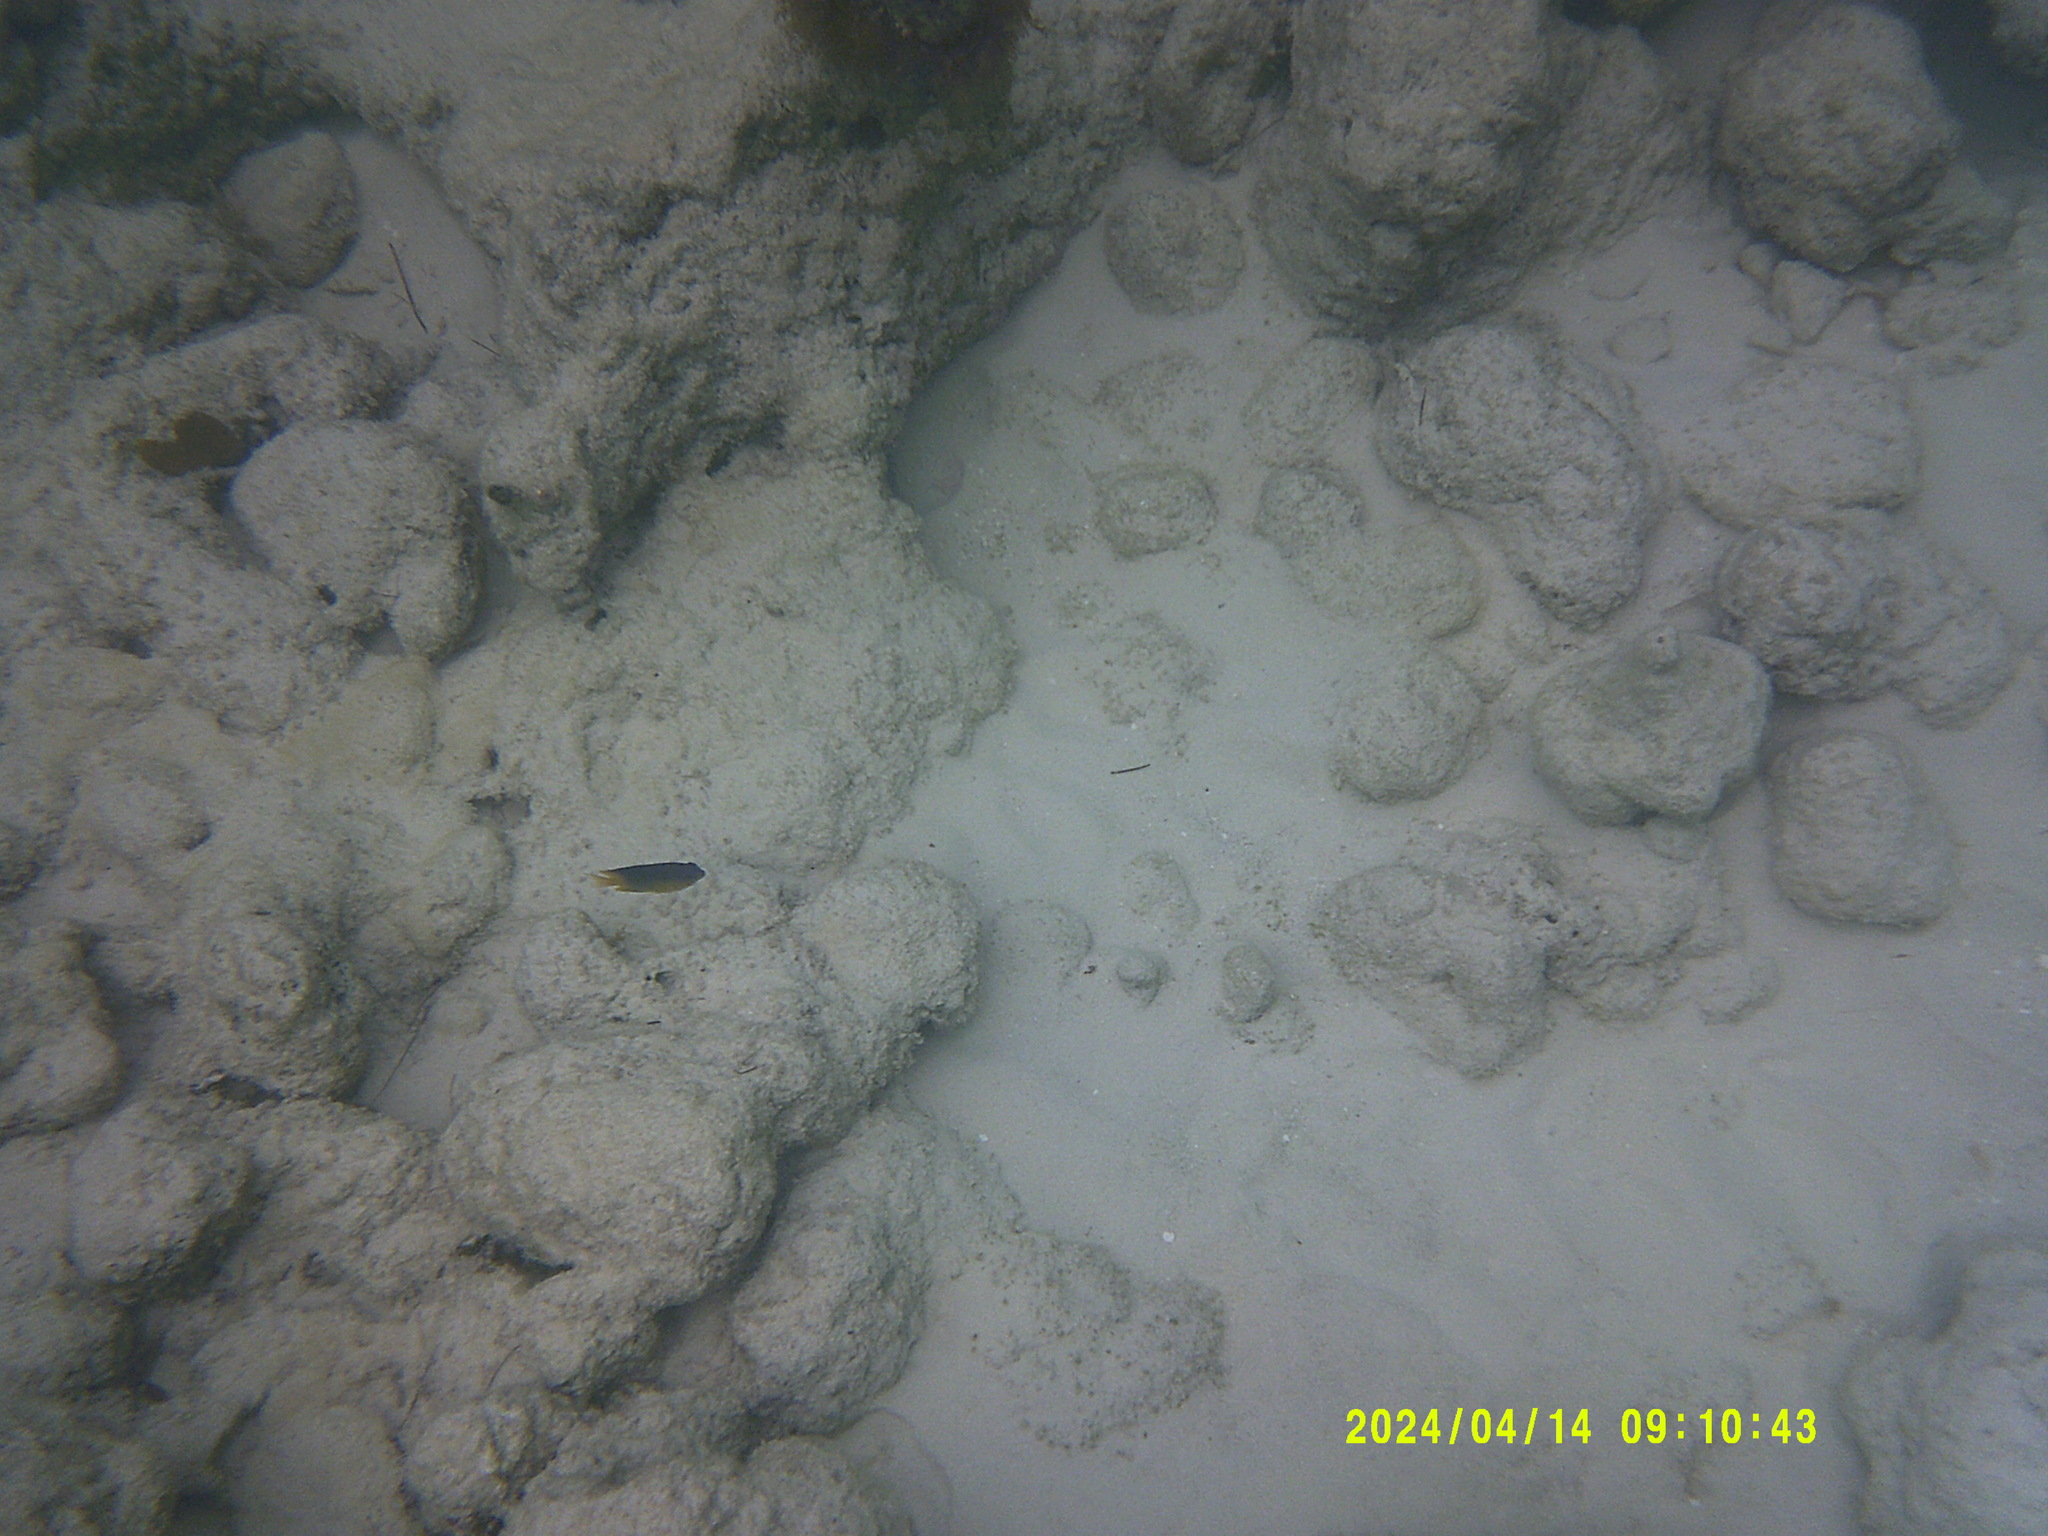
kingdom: Animalia
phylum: Chordata
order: Perciformes
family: Pomacentridae
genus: Stegastes
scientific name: Stegastes leucostictus
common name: Beaugregory
